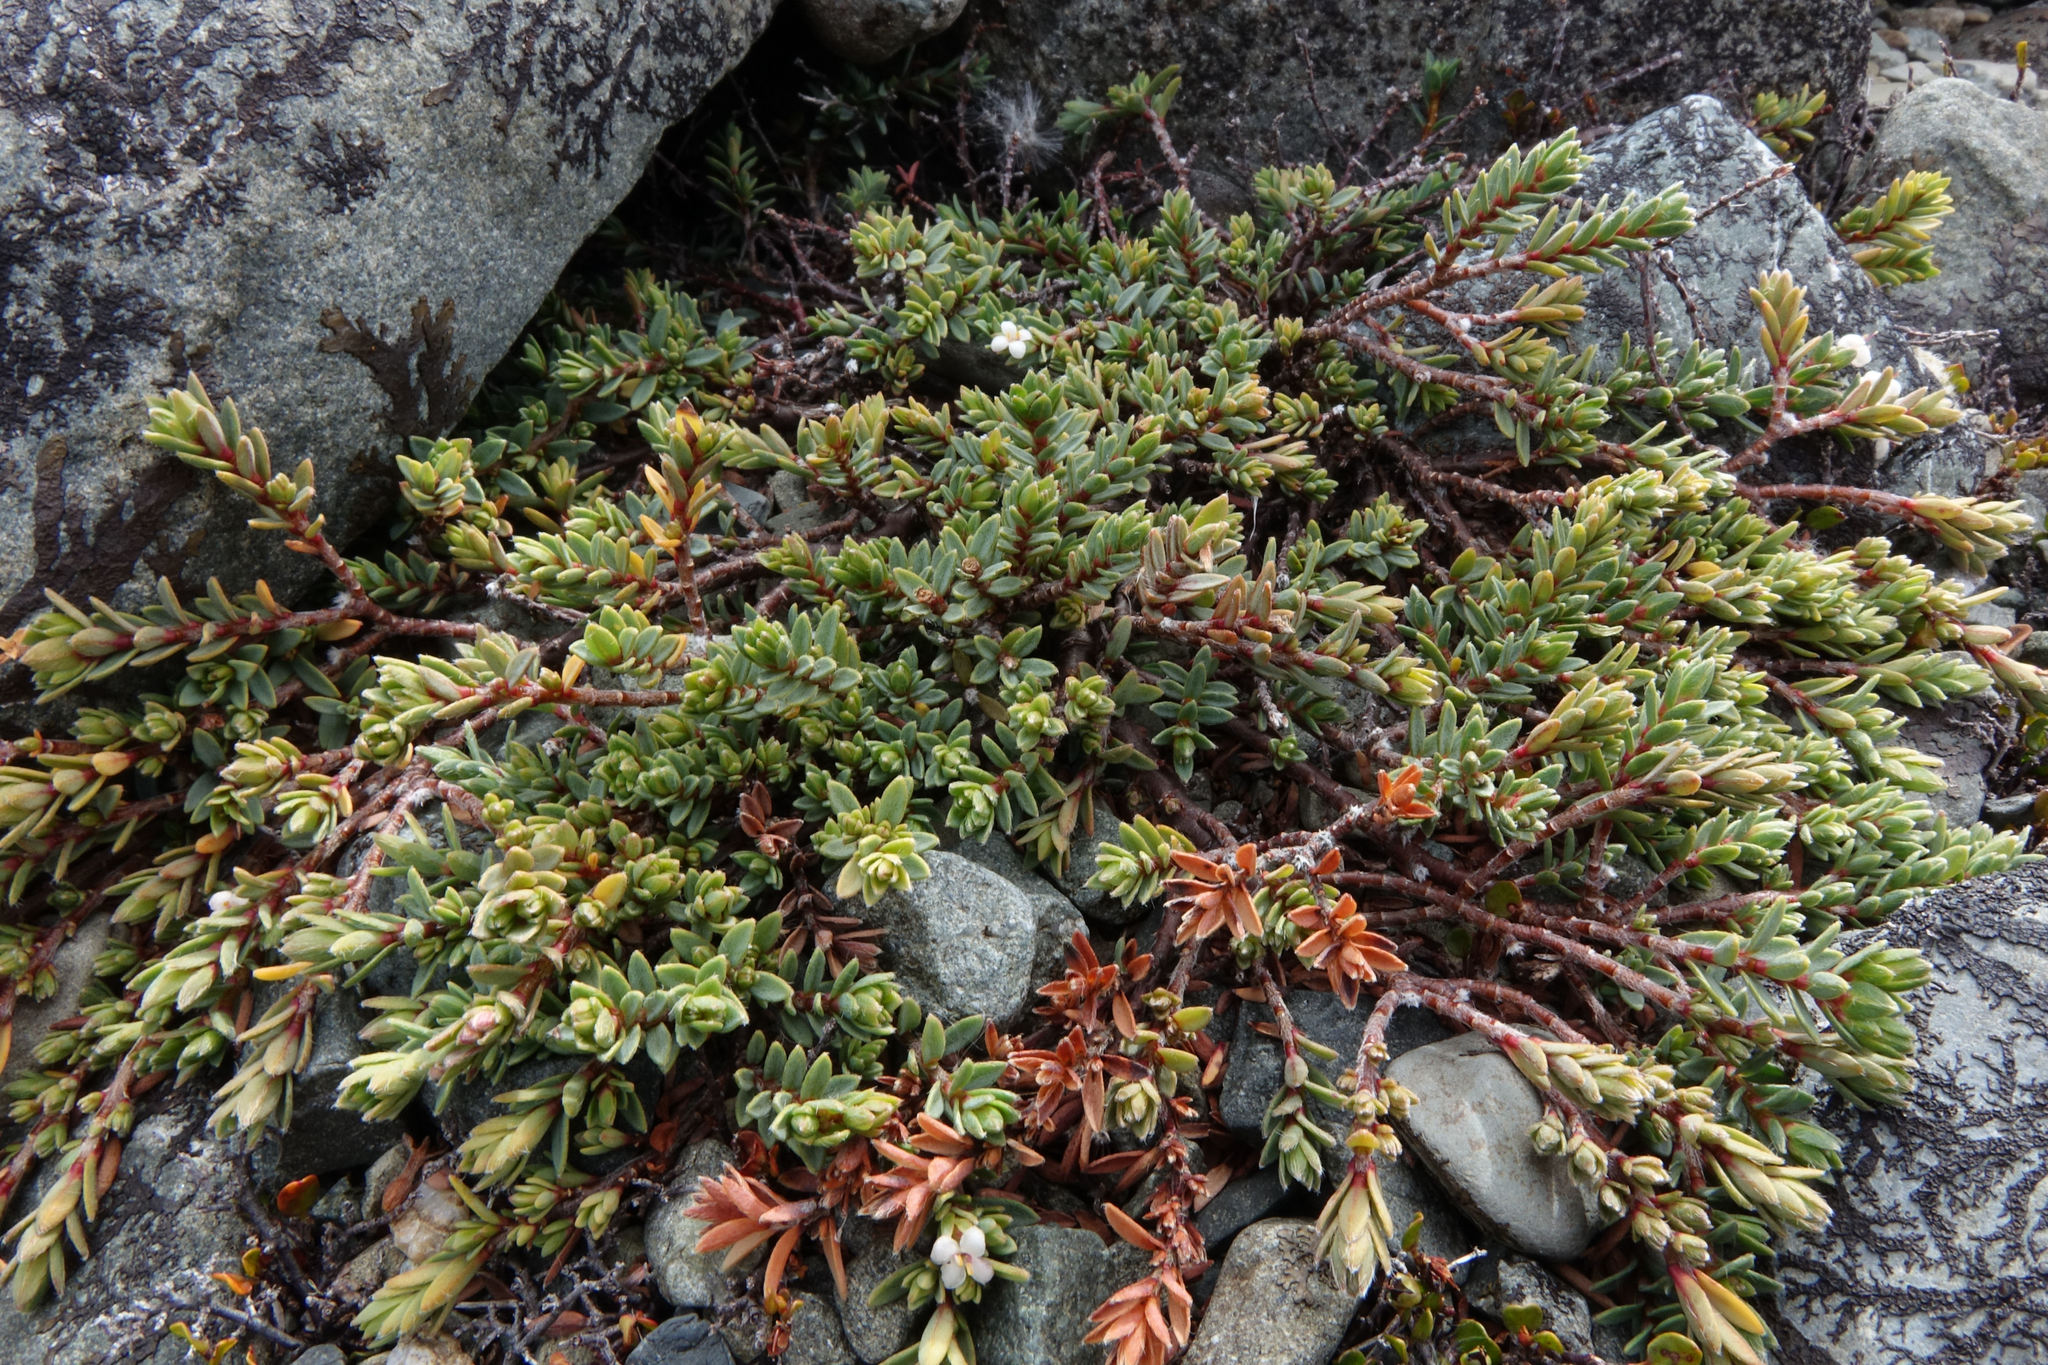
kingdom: Plantae
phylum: Tracheophyta
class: Magnoliopsida
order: Malvales
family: Thymelaeaceae
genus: Pimelea
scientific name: Pimelea prostrata
